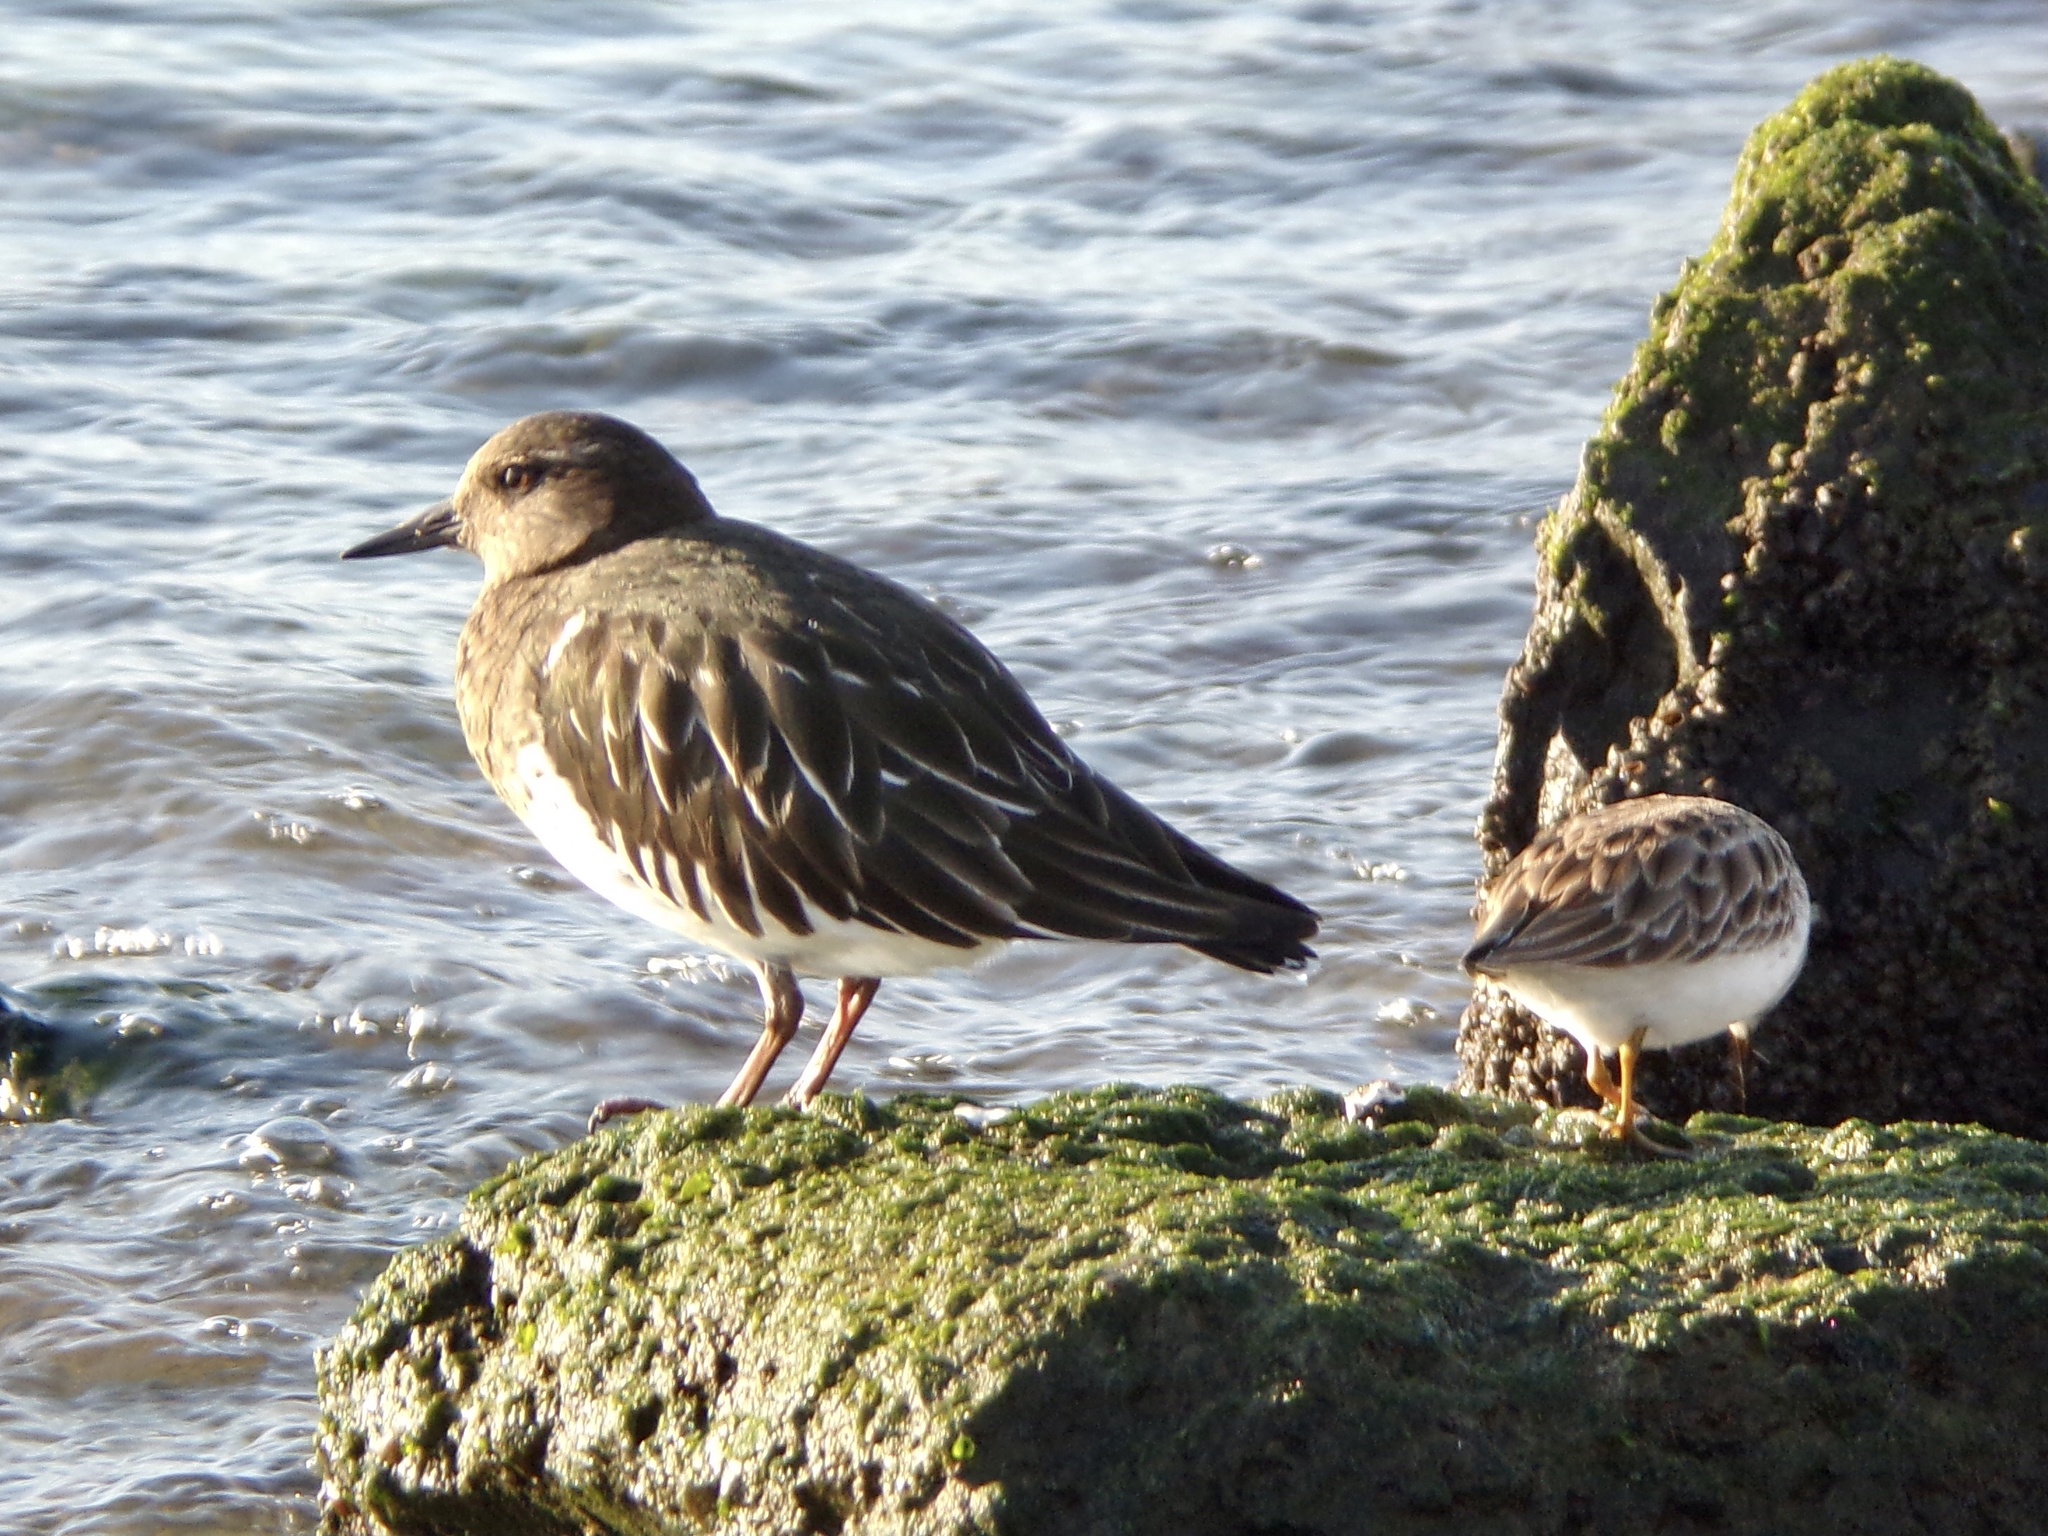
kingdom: Animalia
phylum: Chordata
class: Aves
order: Charadriiformes
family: Scolopacidae
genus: Arenaria
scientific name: Arenaria melanocephala
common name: Black turnstone
